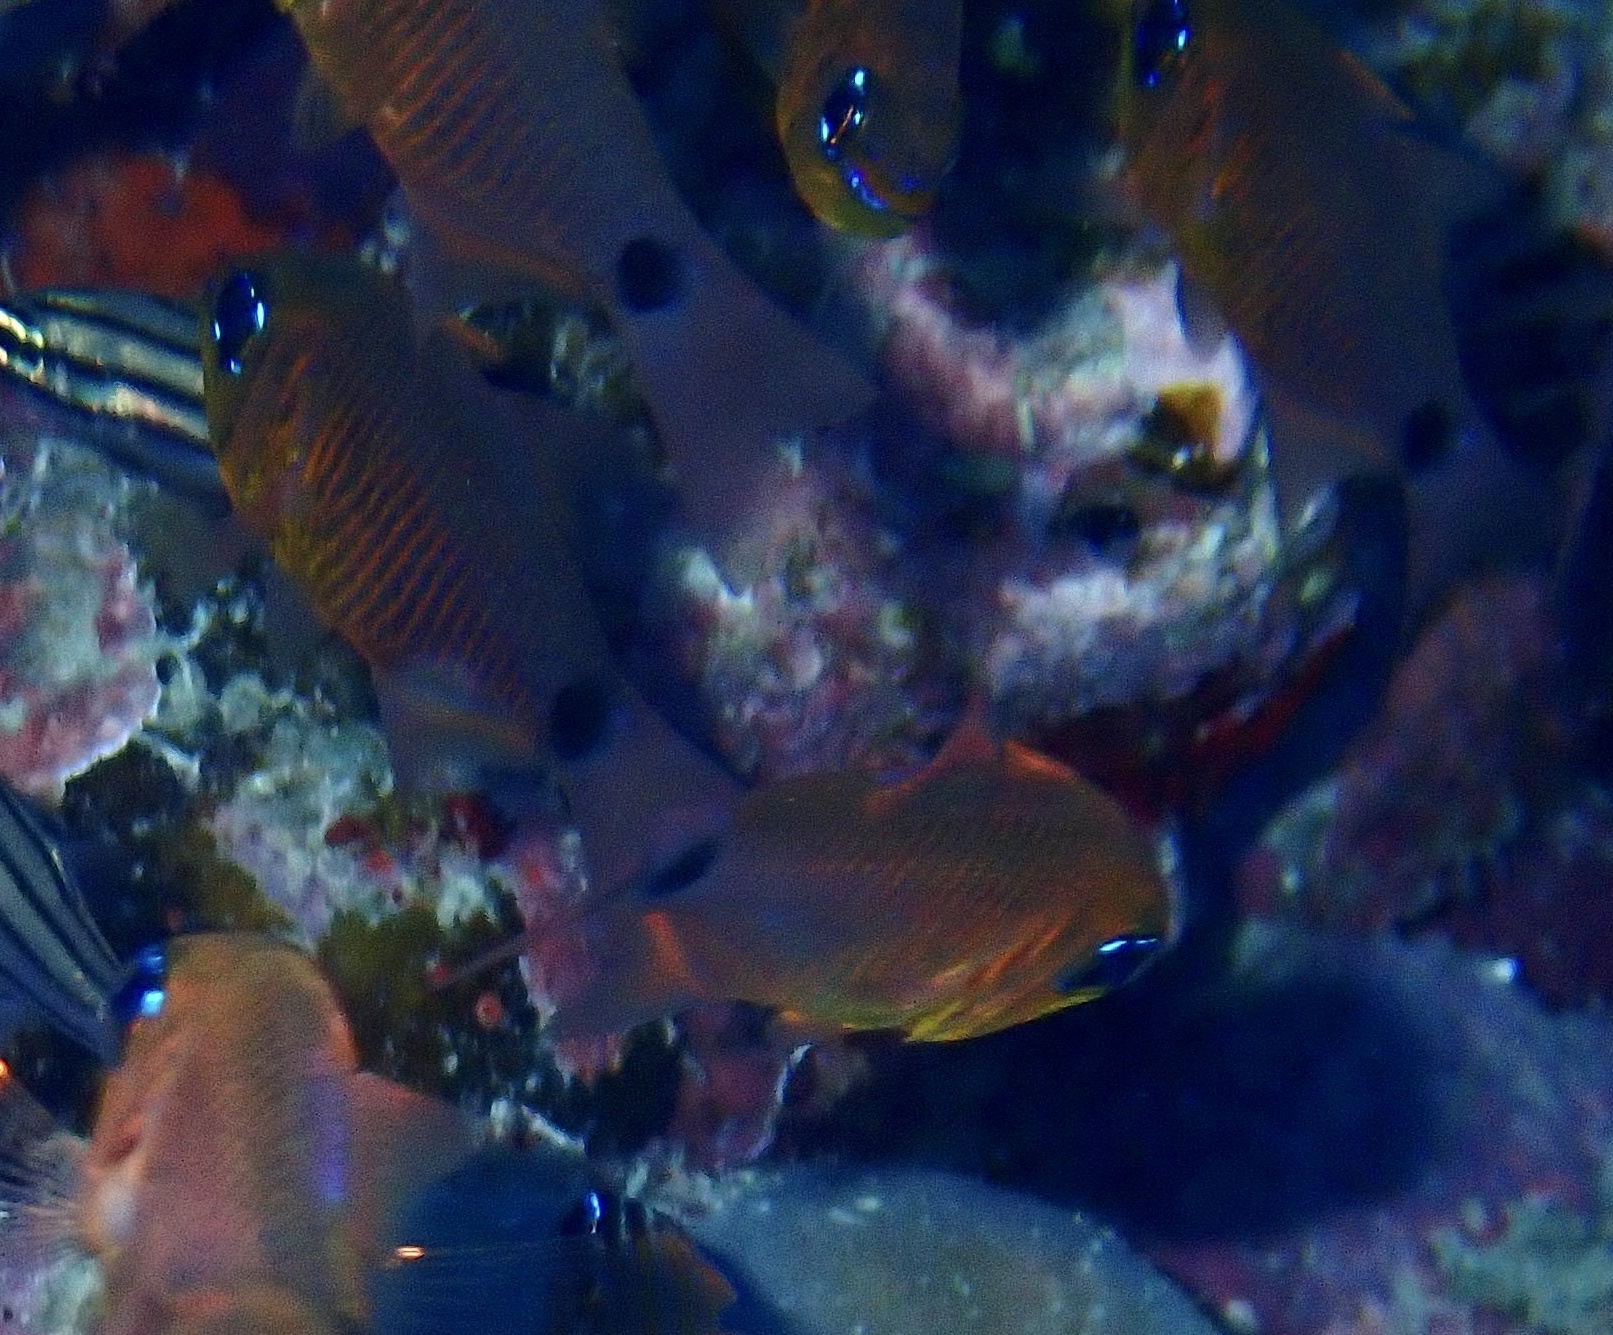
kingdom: Animalia
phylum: Chordata
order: Perciformes
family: Apogonidae
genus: Taeniamia
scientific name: Taeniamia fucata
